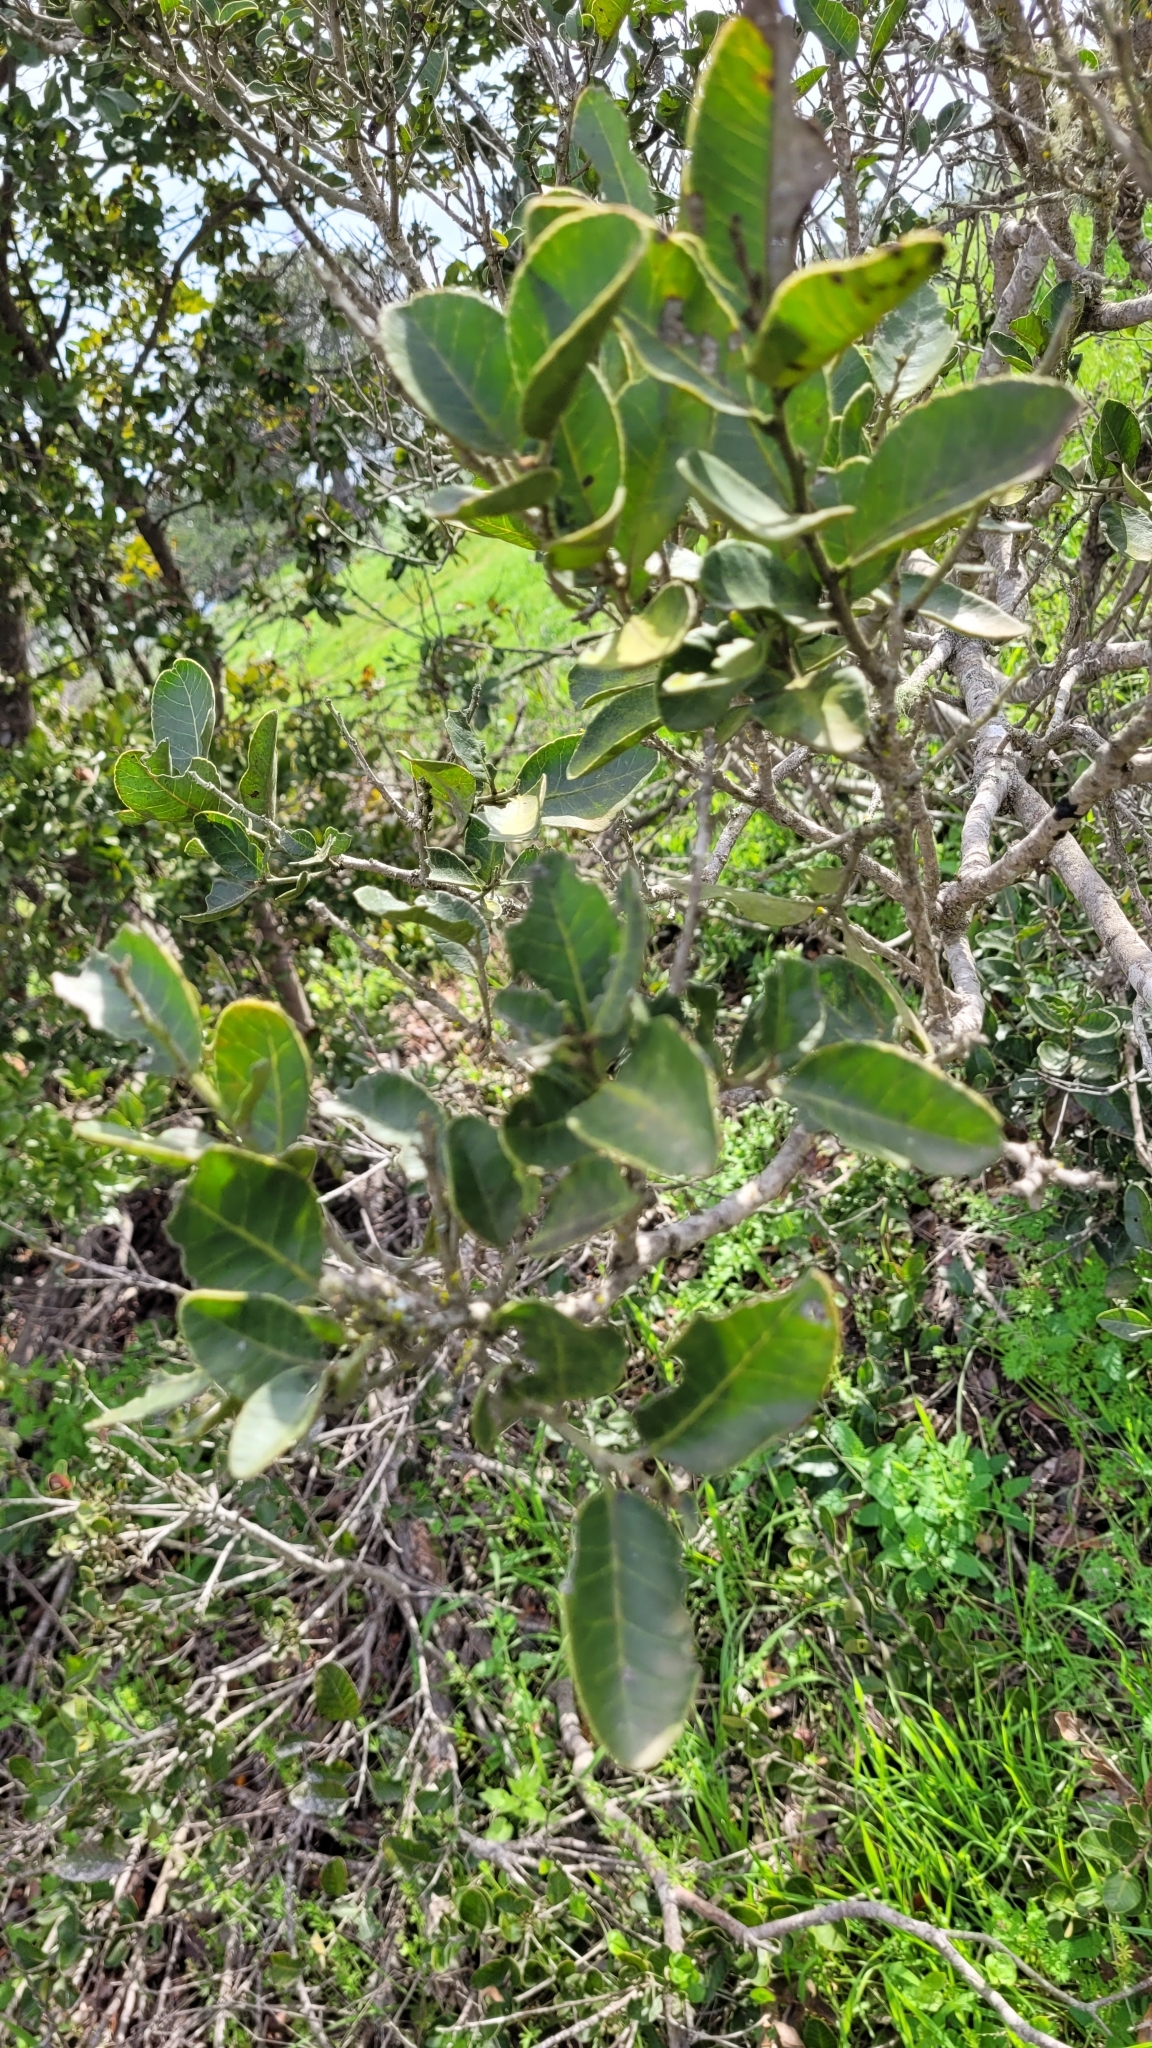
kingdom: Plantae
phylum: Tracheophyta
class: Magnoliopsida
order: Sapindales
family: Anacardiaceae
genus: Lithraea
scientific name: Lithraea caustica
